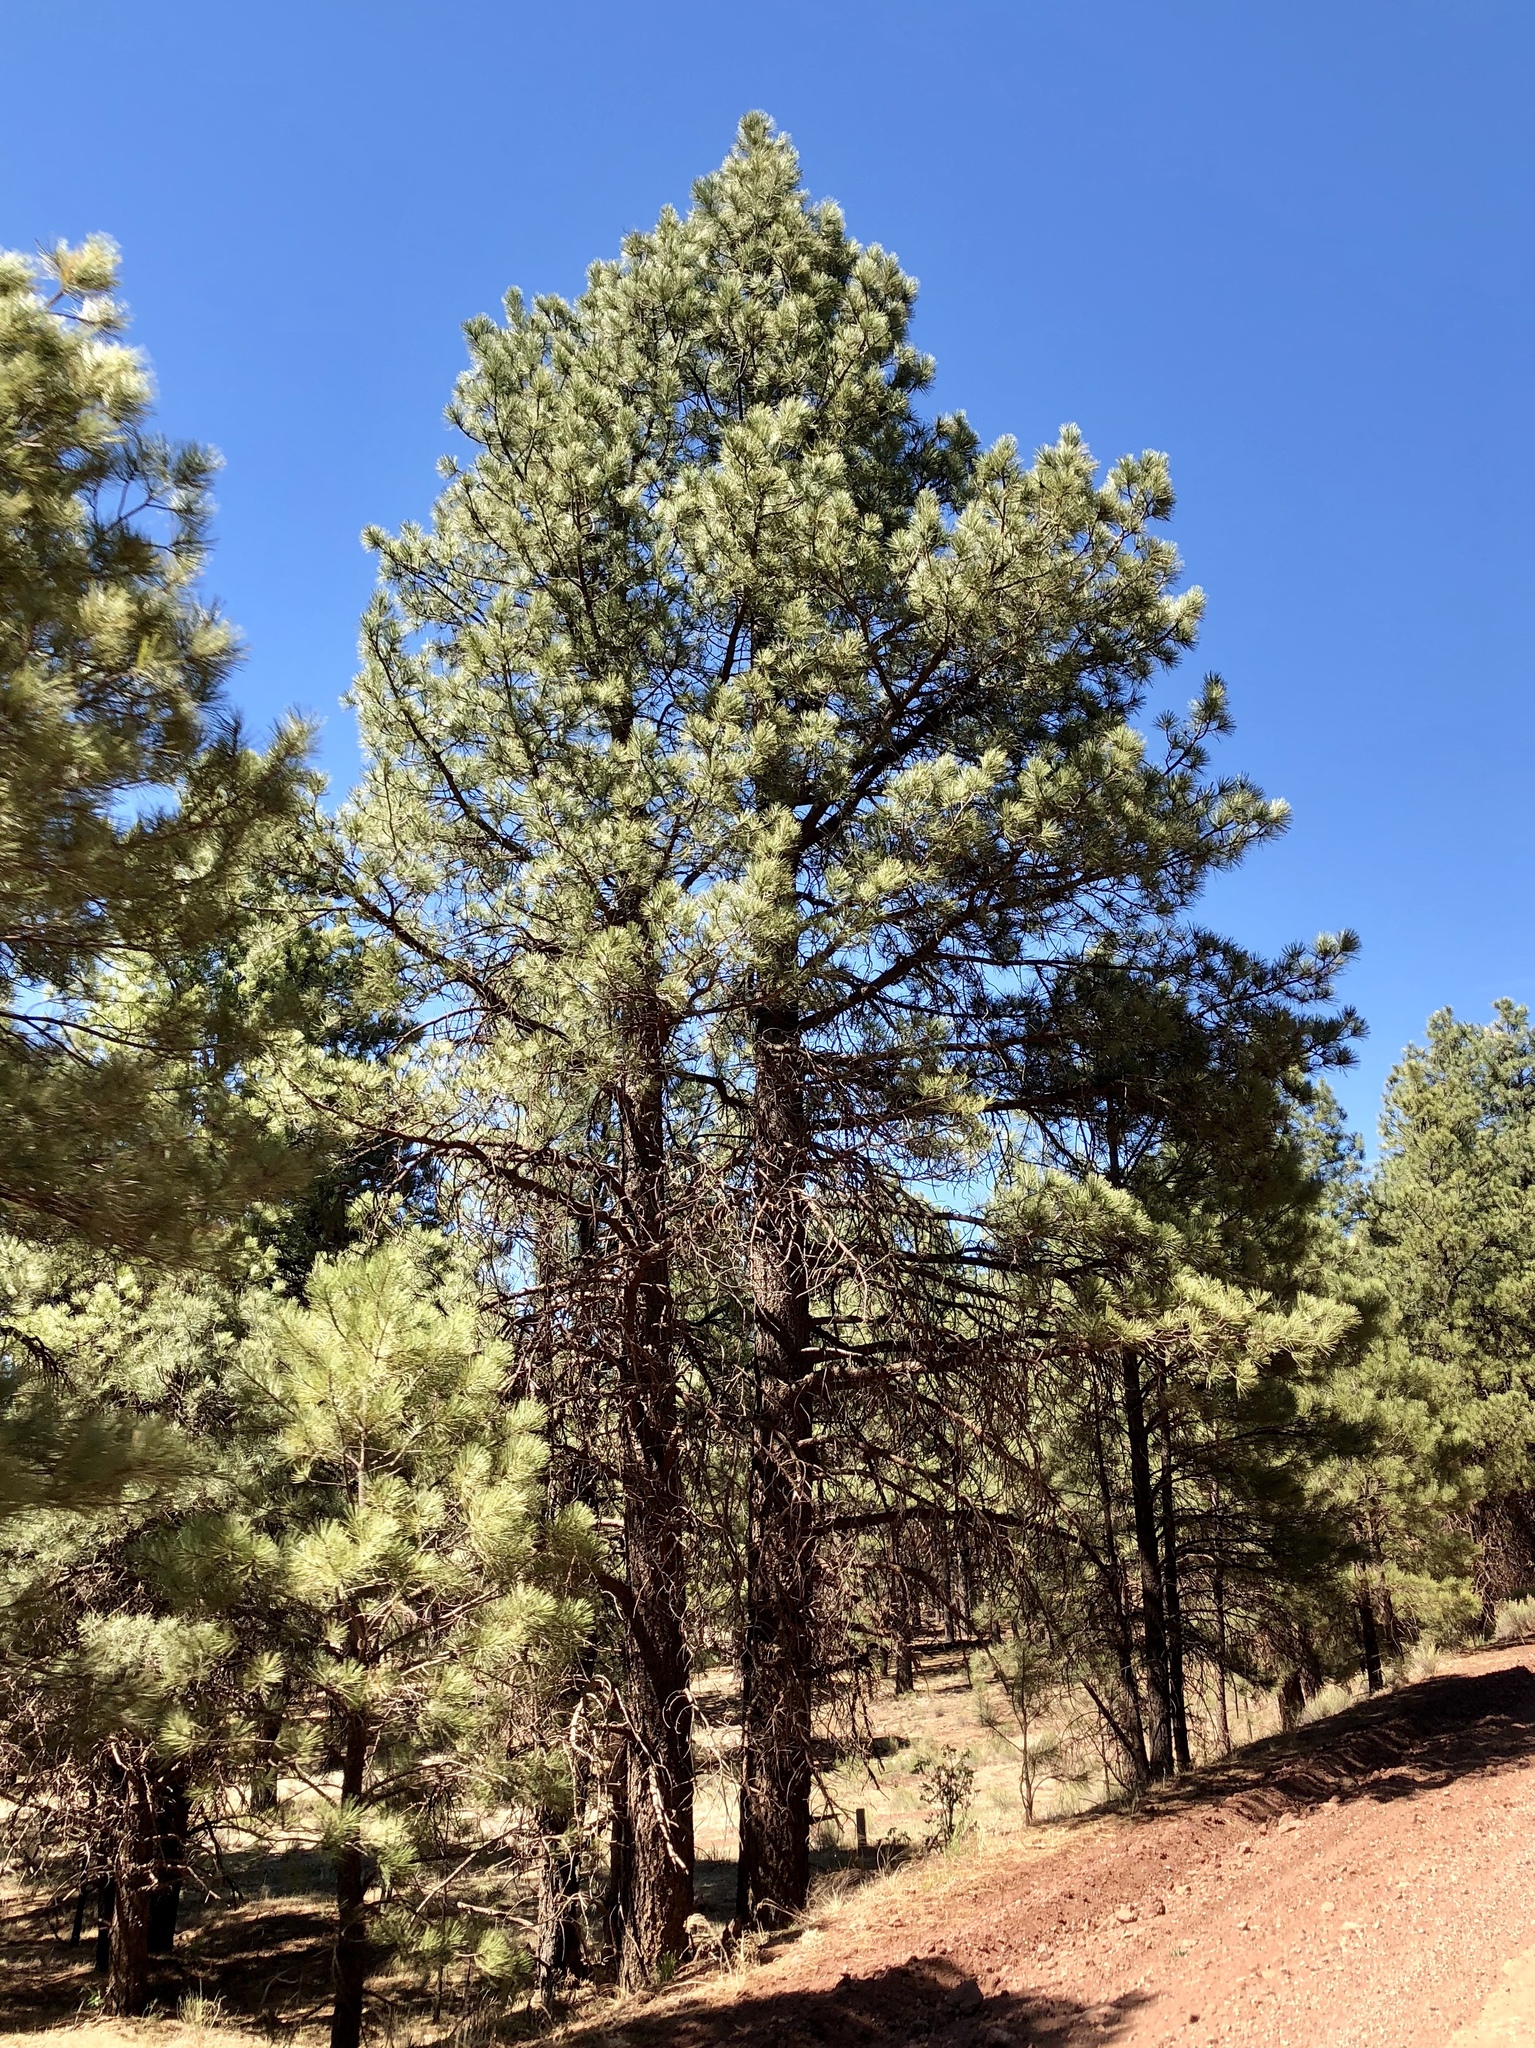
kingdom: Plantae
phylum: Tracheophyta
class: Pinopsida
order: Pinales
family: Pinaceae
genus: Pinus
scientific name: Pinus ponderosa
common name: Western yellow-pine
